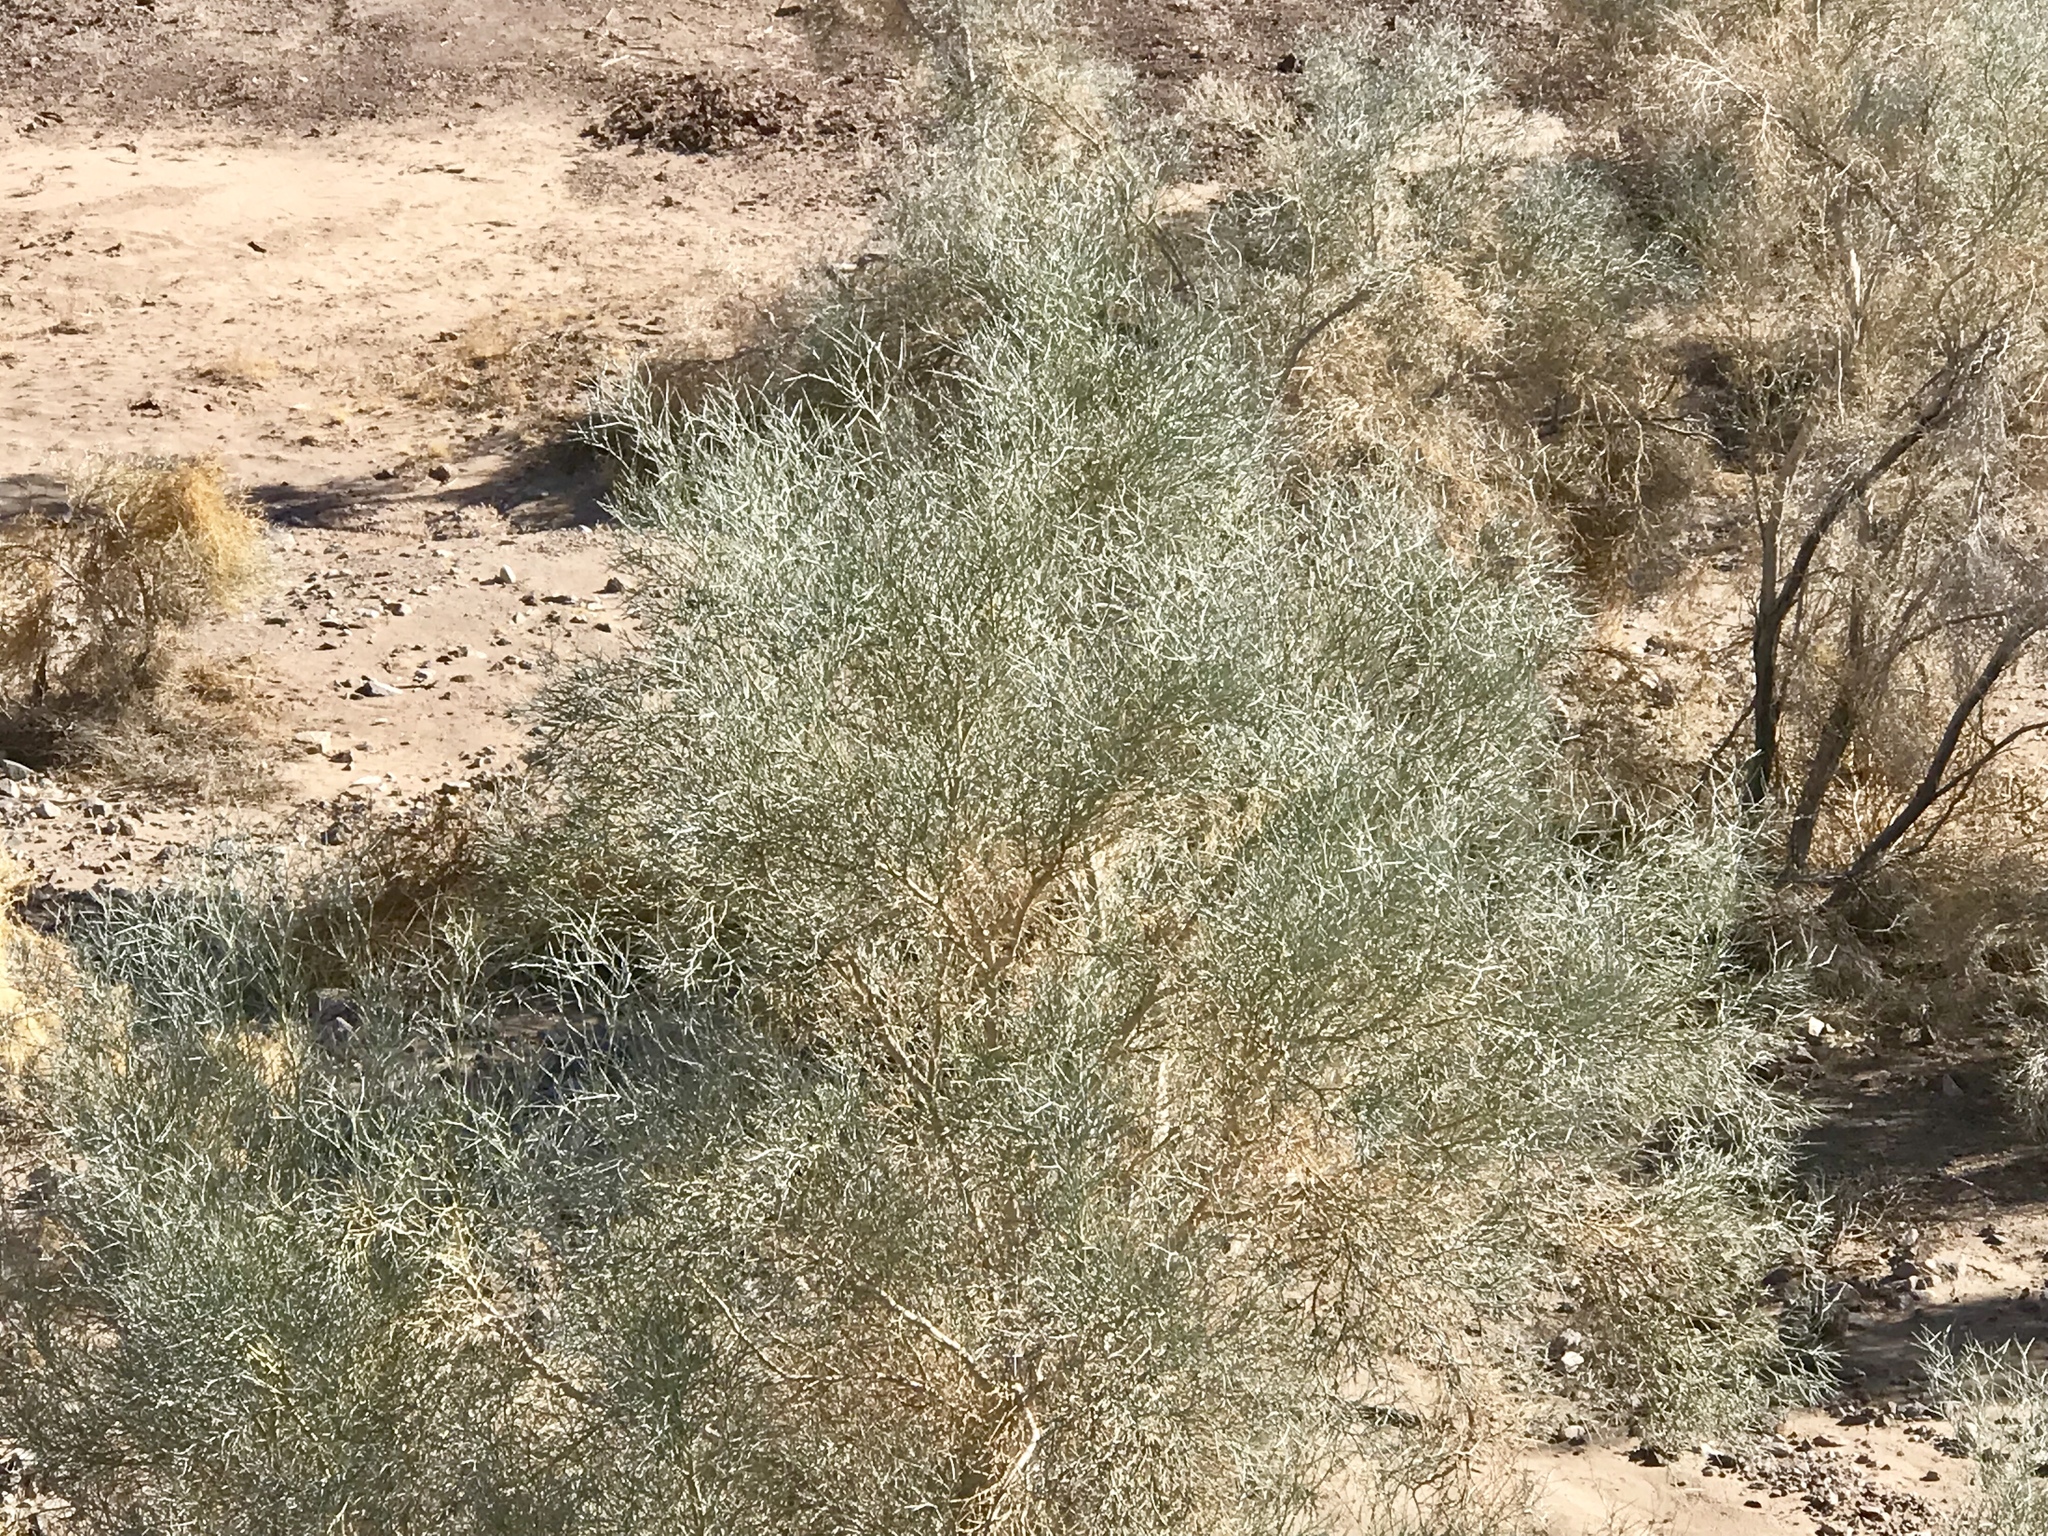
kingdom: Plantae
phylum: Tracheophyta
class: Magnoliopsida
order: Fabales
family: Fabaceae
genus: Psorothamnus
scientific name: Psorothamnus spinosus
